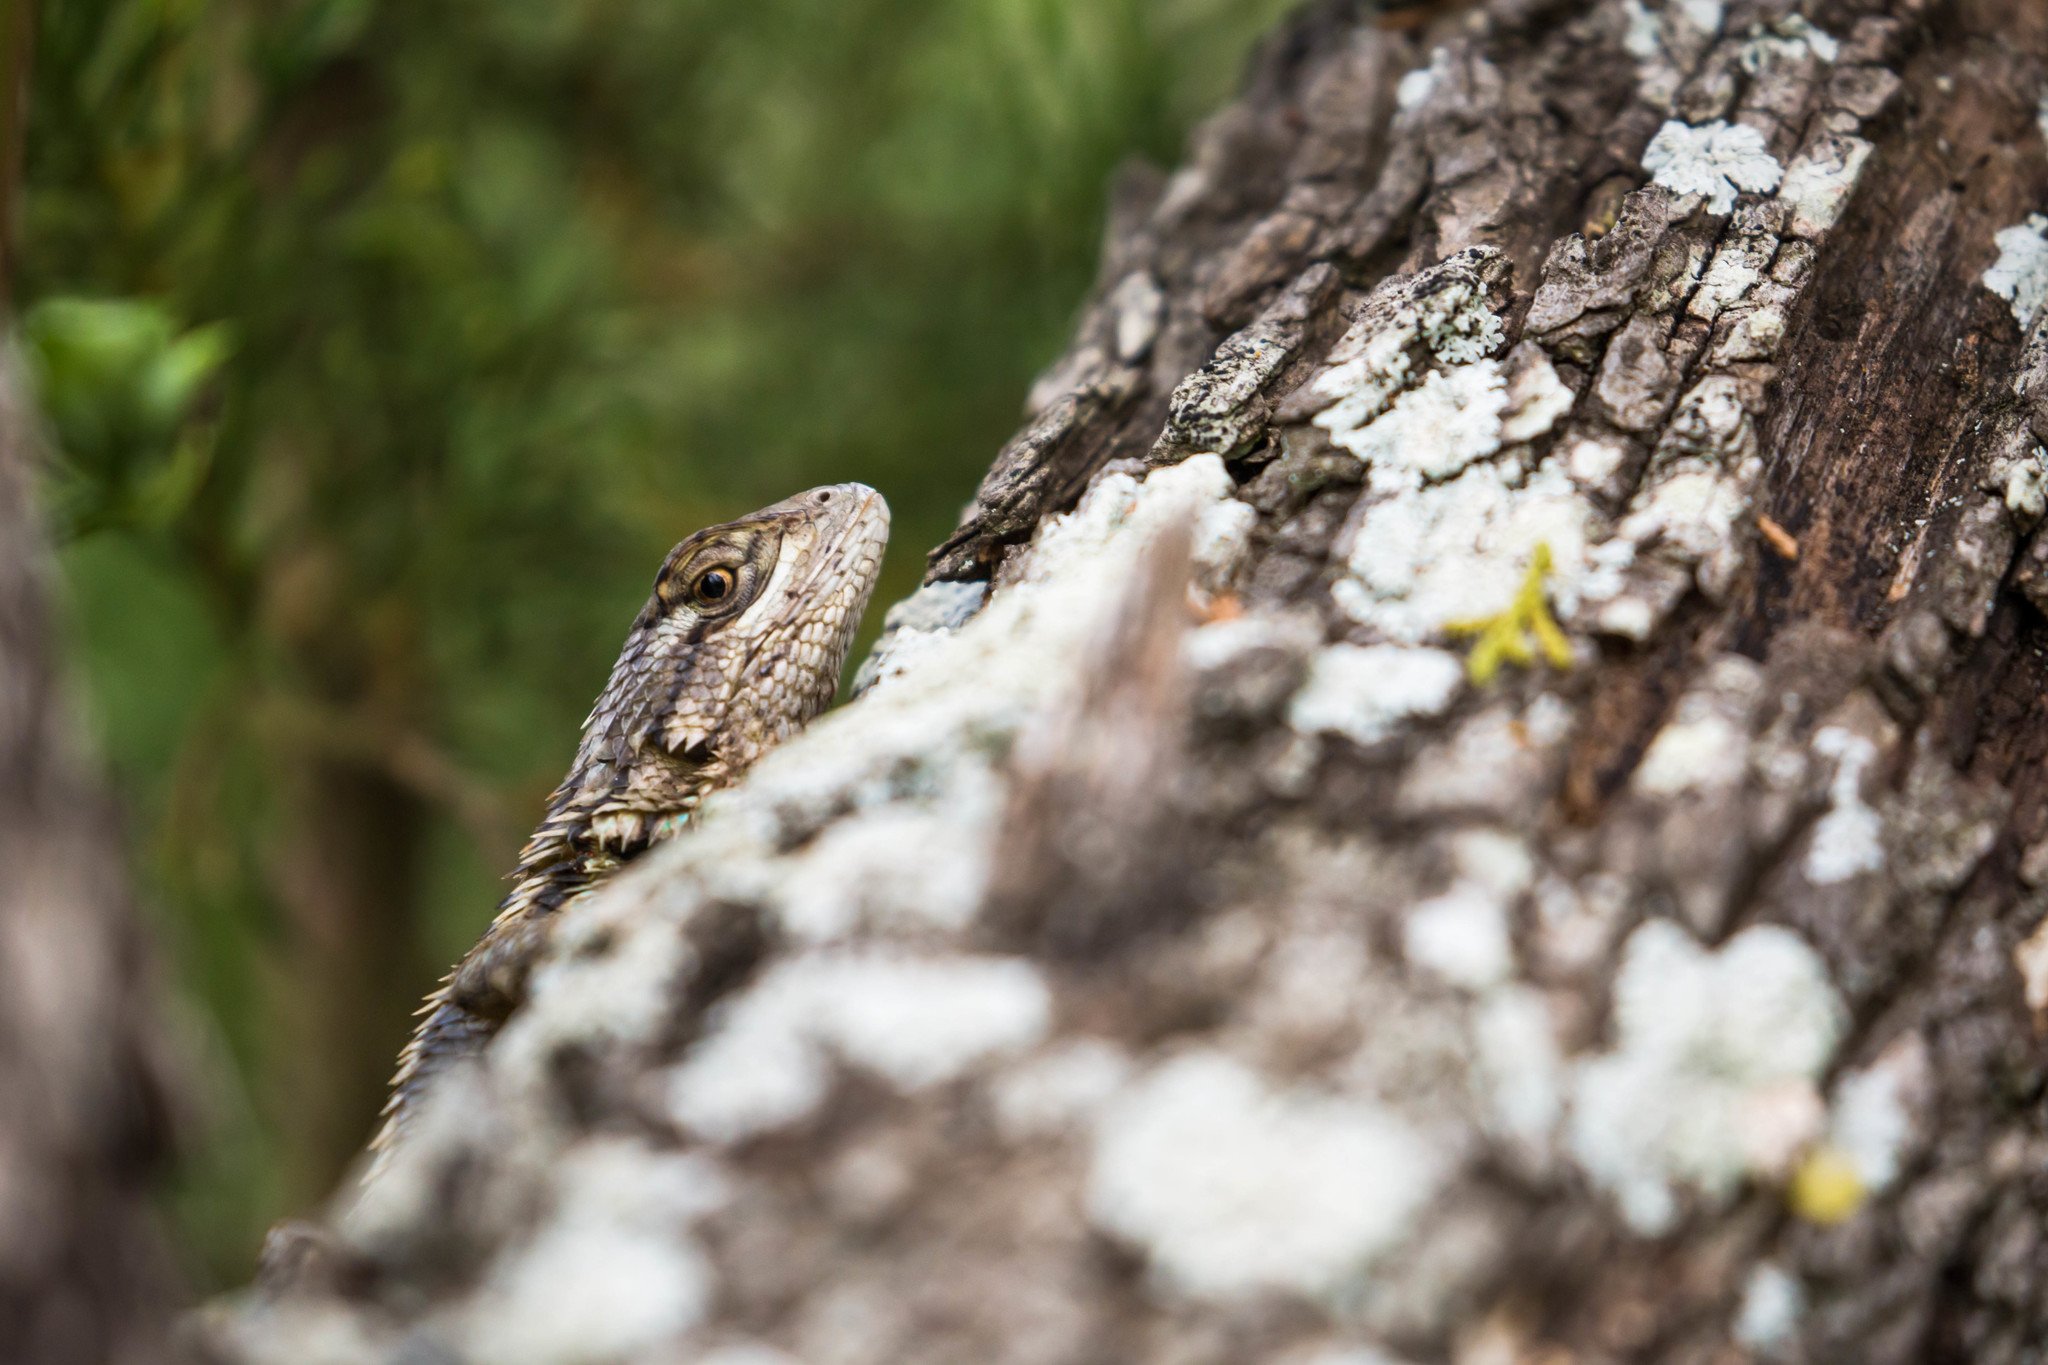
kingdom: Animalia
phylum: Chordata
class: Squamata
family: Phrynosomatidae
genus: Sceloporus
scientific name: Sceloporus olivaceus
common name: Texas spiny lizard
